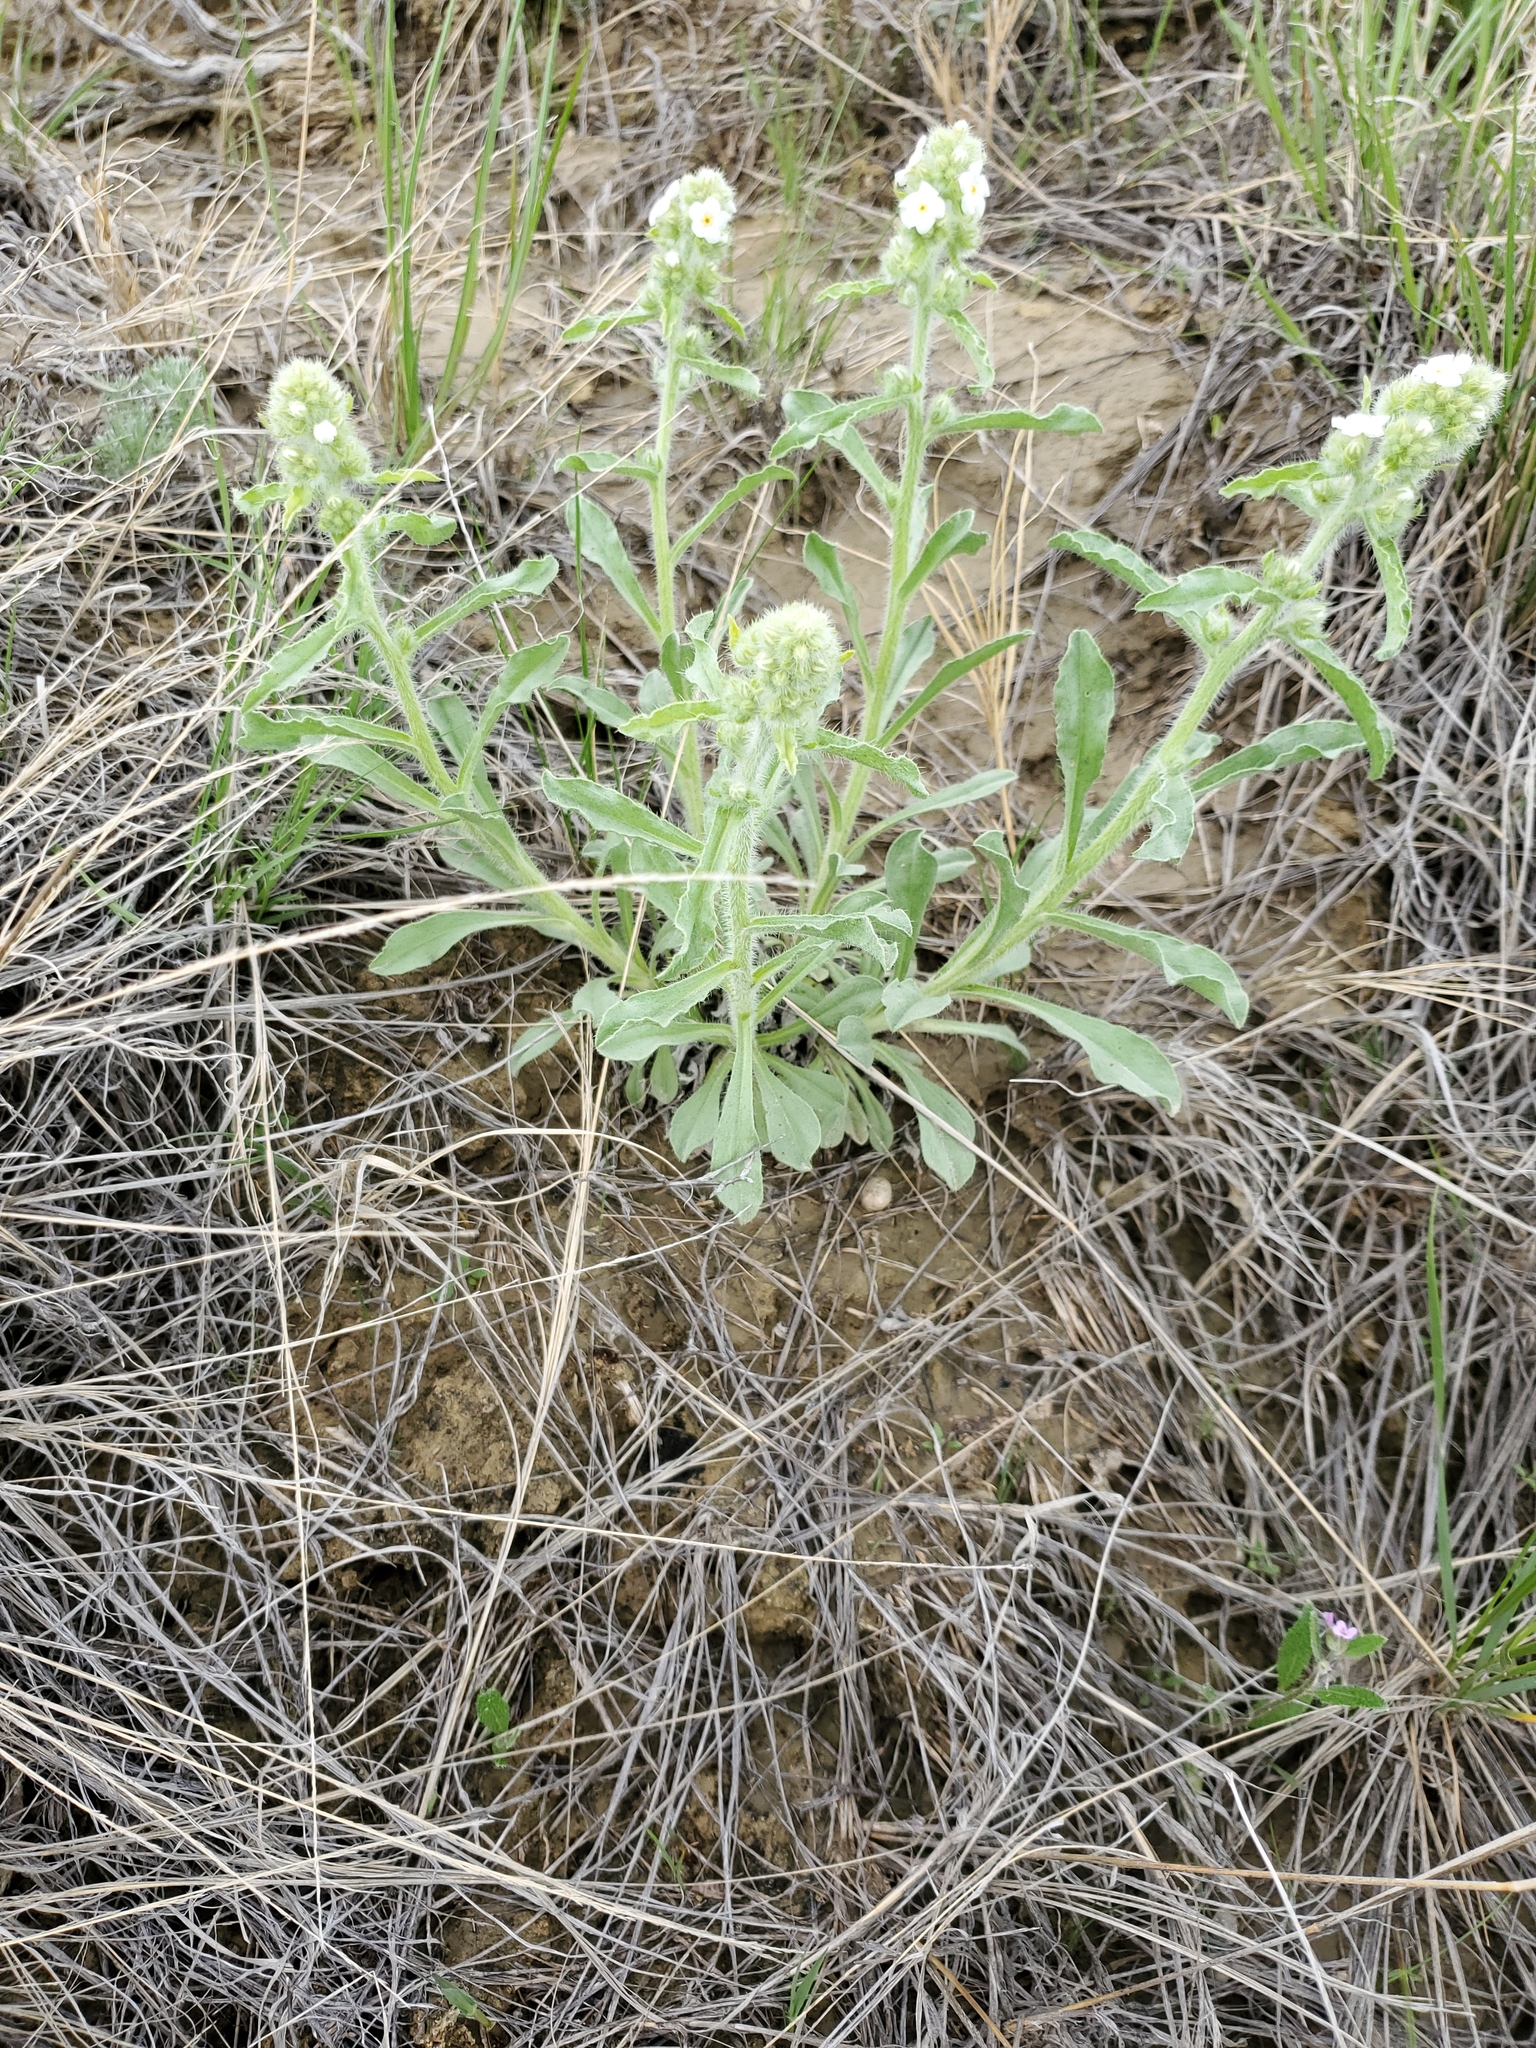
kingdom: Plantae
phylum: Tracheophyta
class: Magnoliopsida
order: Boraginales
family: Boraginaceae
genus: Oreocarya
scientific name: Oreocarya glomerata
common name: Macoun's cryptantha
